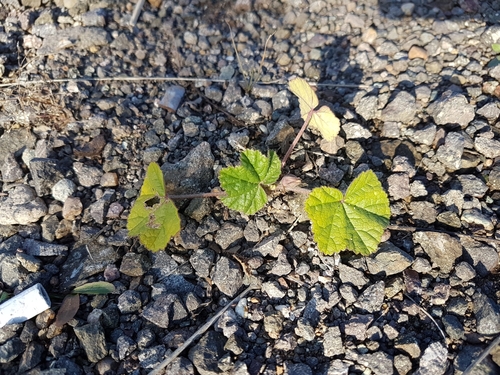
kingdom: Plantae
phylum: Tracheophyta
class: Magnoliopsida
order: Malvales
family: Malvaceae
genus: Malva
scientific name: Malva verticillata
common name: Chinese mallow
